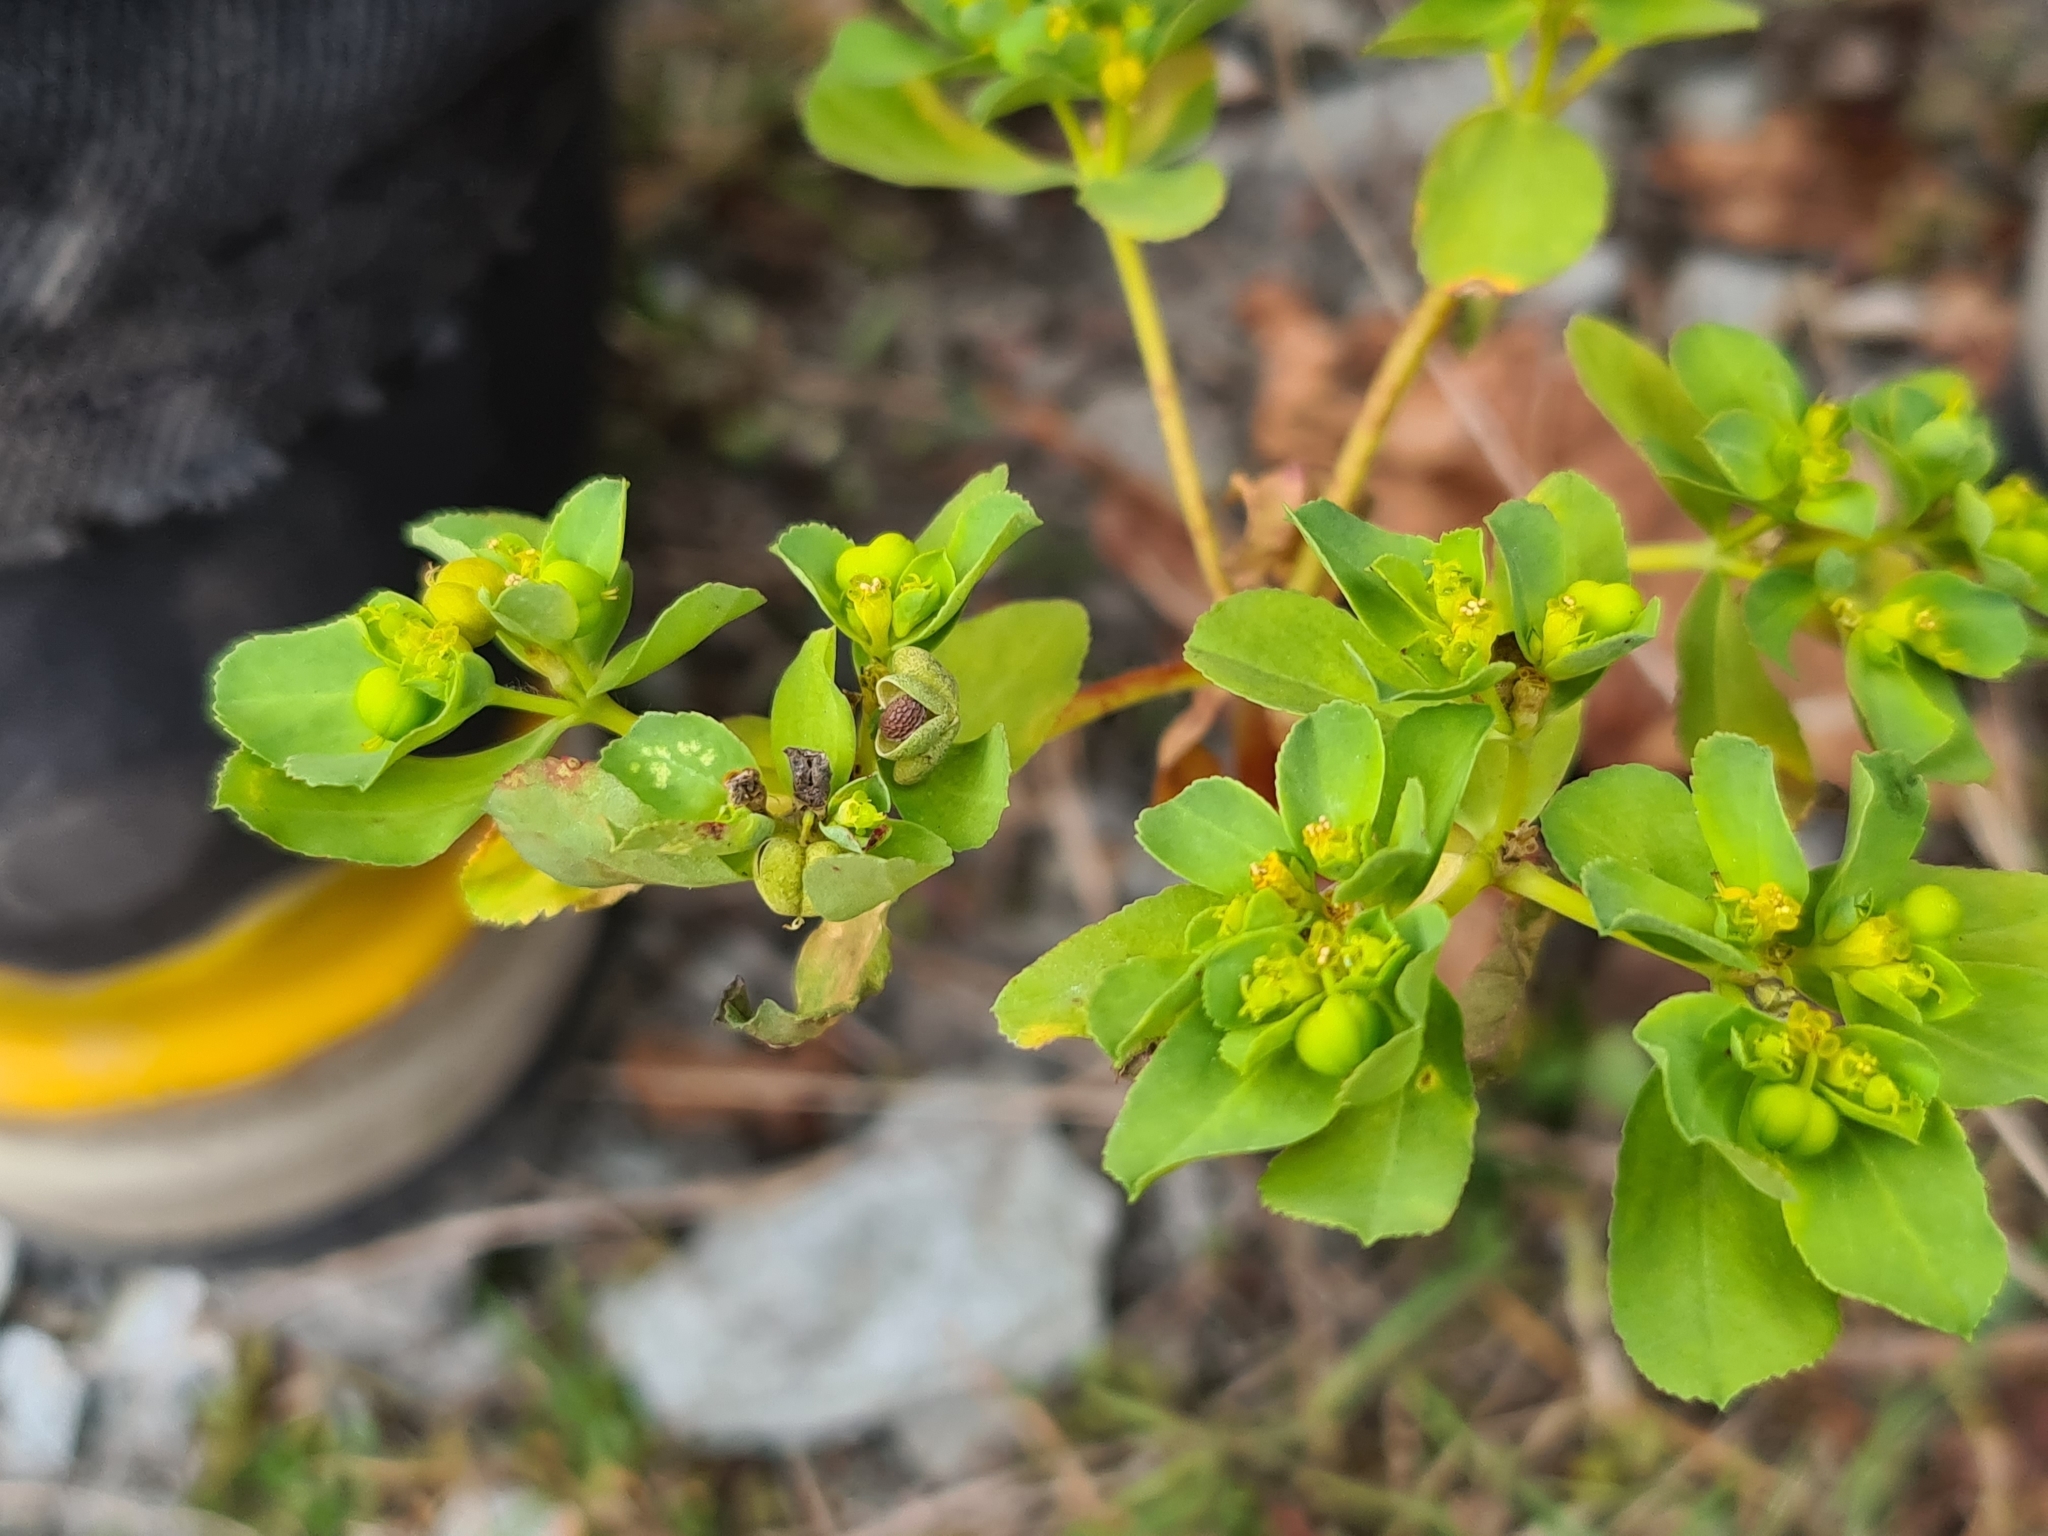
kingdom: Plantae
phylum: Tracheophyta
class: Magnoliopsida
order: Malpighiales
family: Euphorbiaceae
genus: Euphorbia
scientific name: Euphorbia helioscopia
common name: Sun spurge
